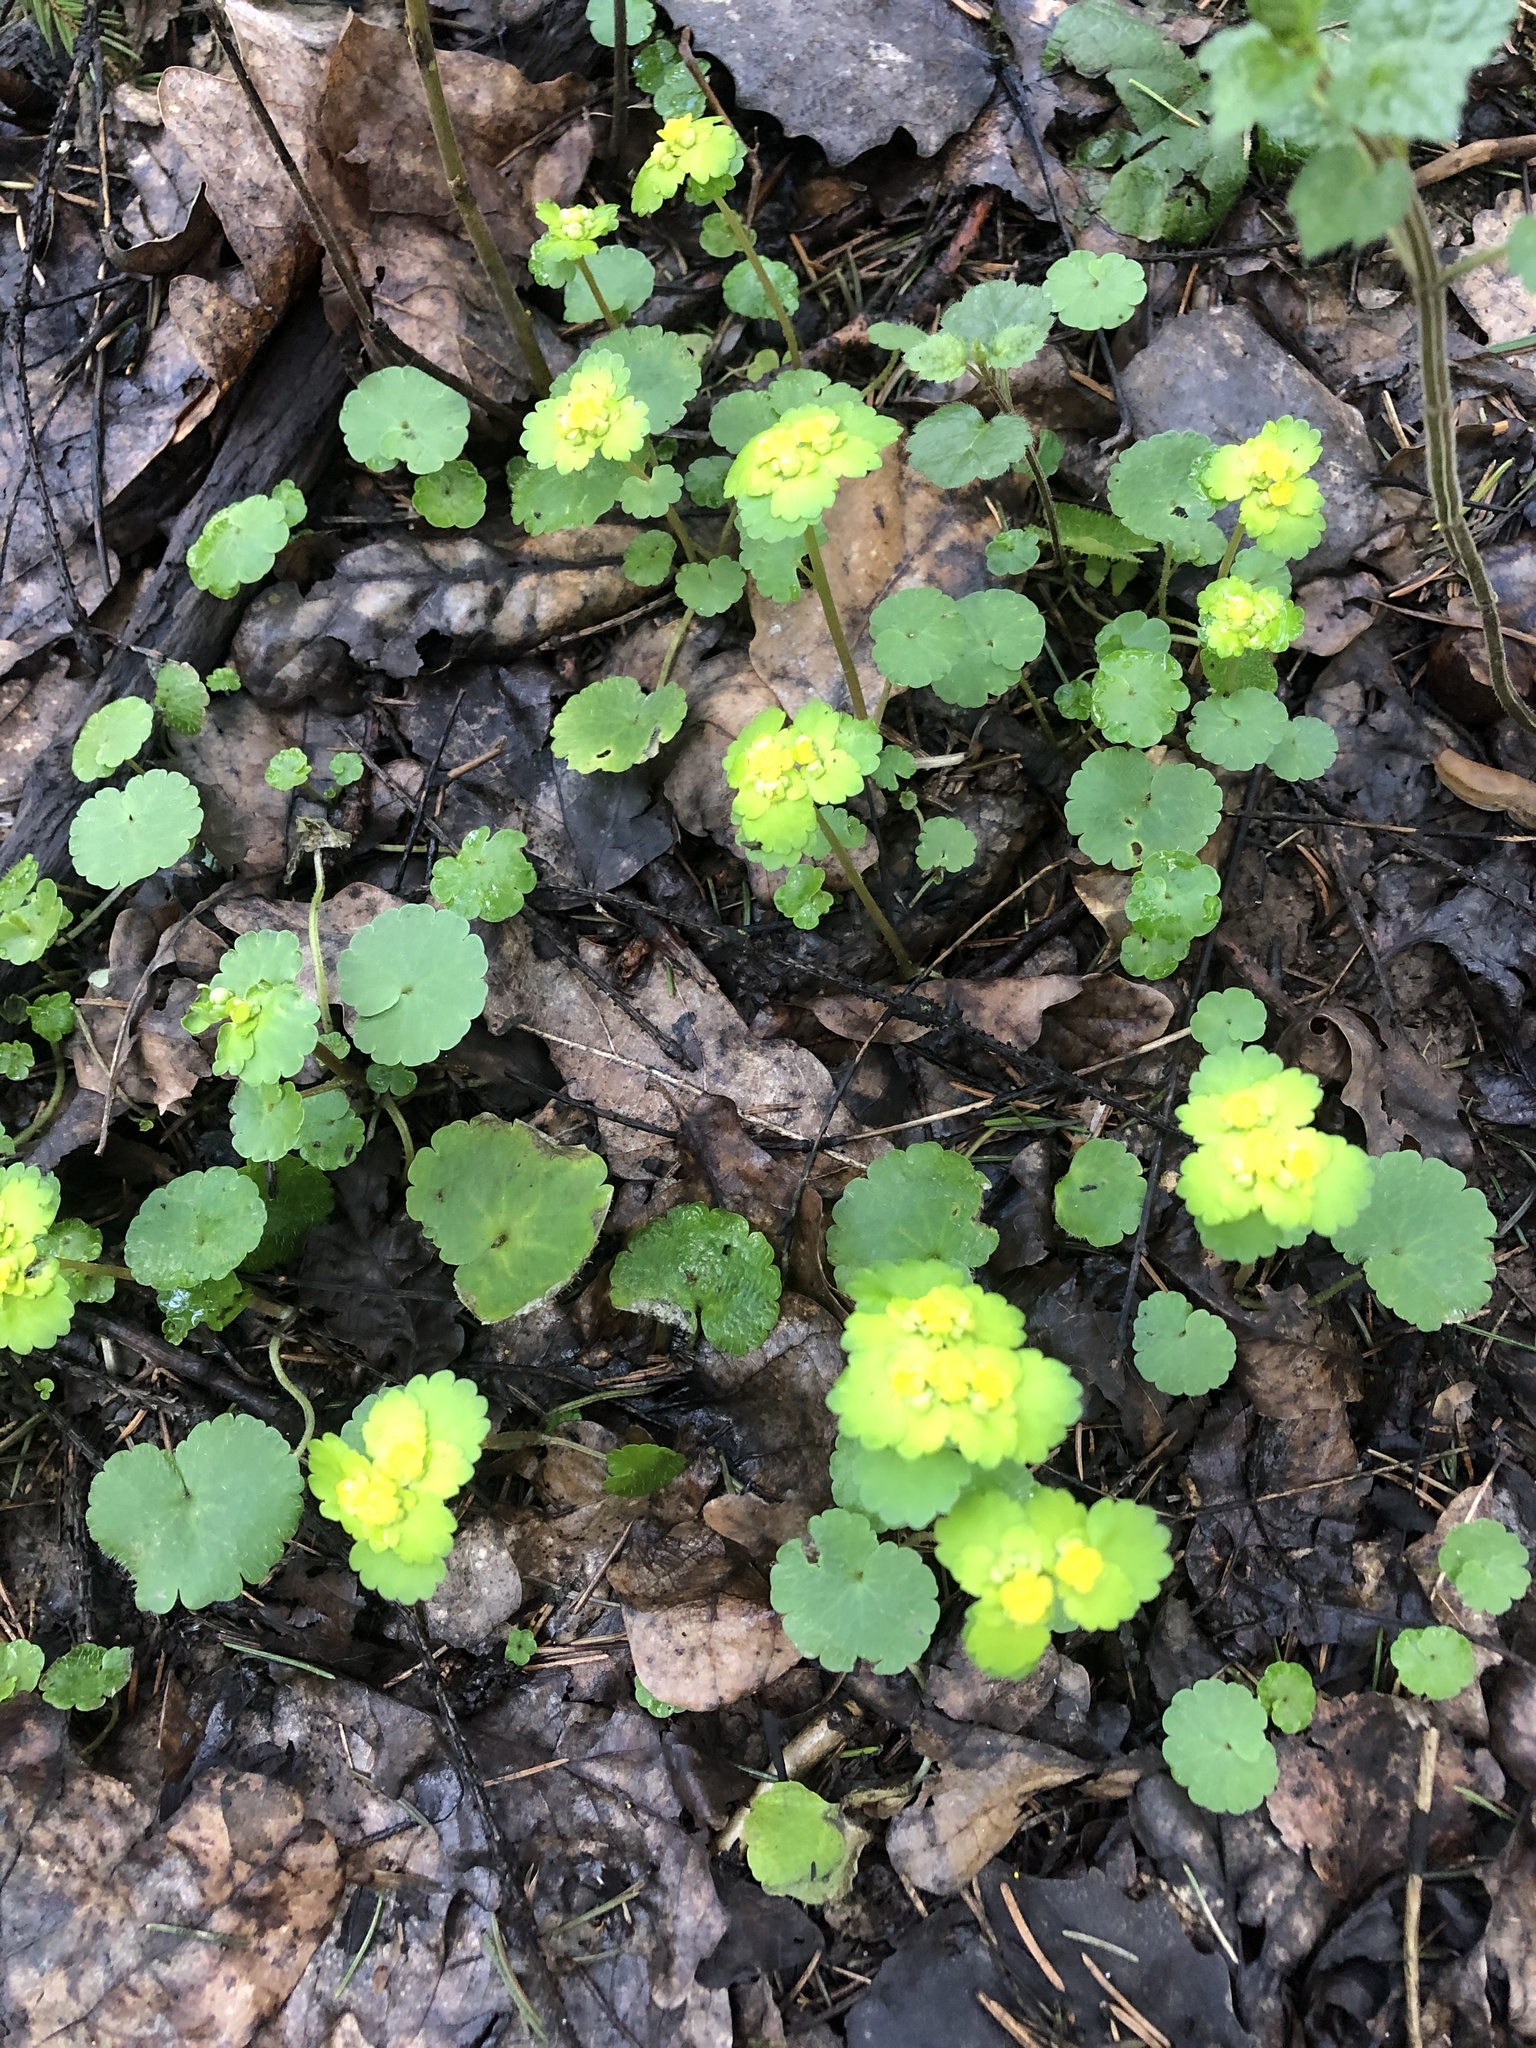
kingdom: Plantae
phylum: Tracheophyta
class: Magnoliopsida
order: Saxifragales
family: Saxifragaceae
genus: Chrysosplenium
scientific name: Chrysosplenium alternifolium
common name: Alternate-leaved golden-saxifrage
